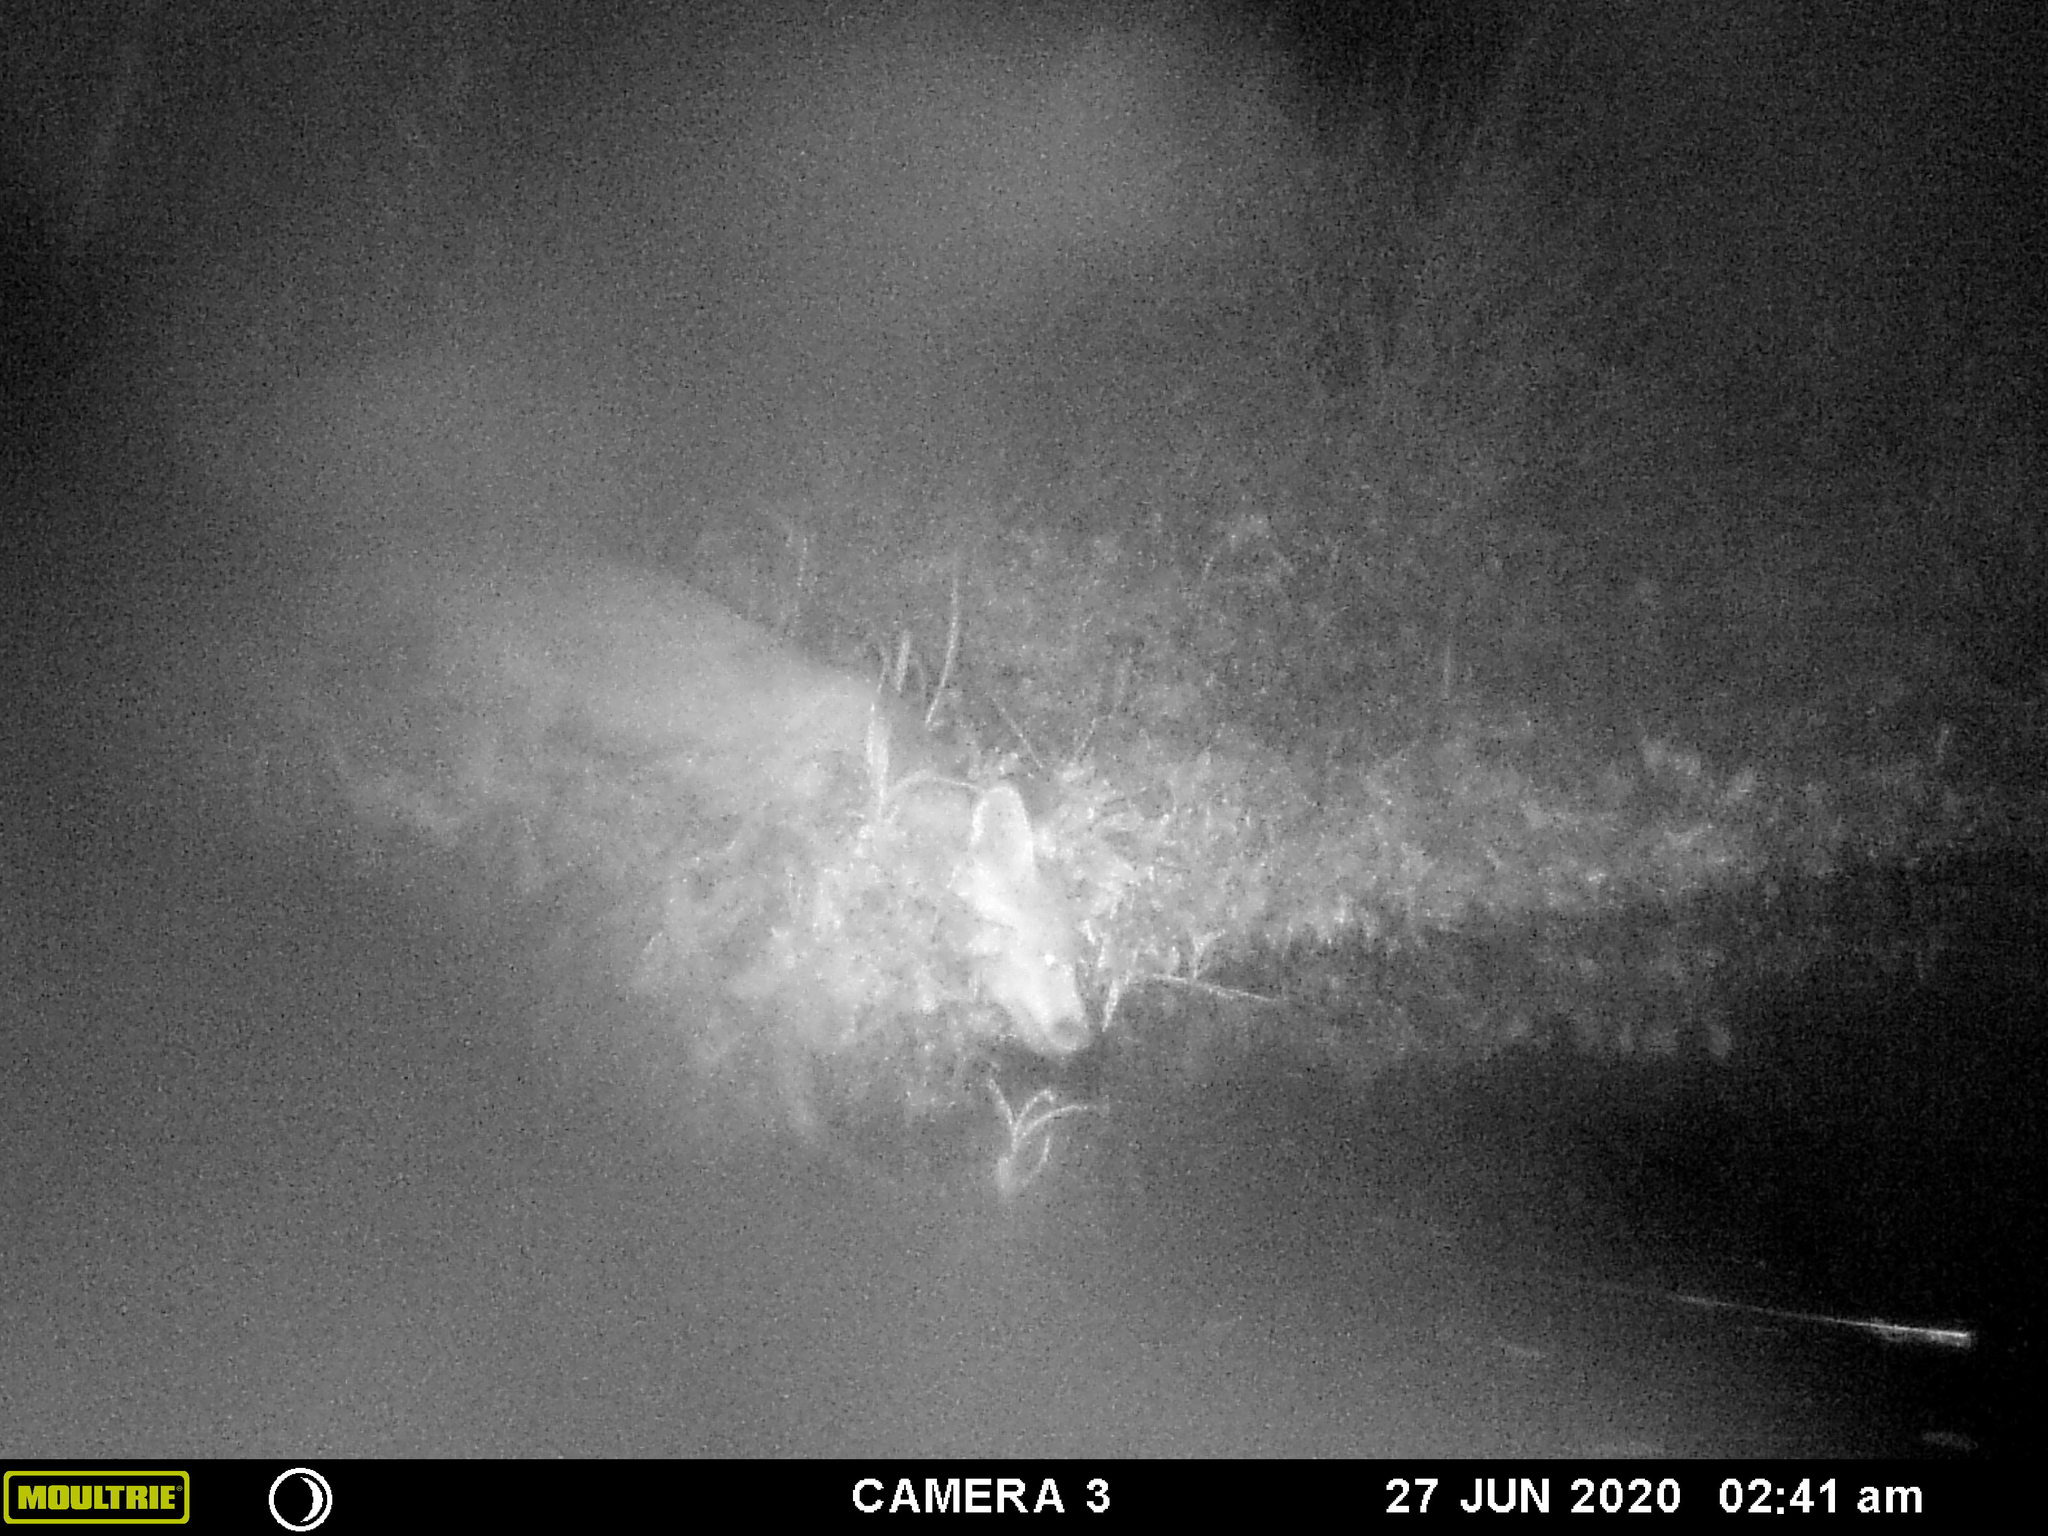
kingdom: Animalia
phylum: Chordata
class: Mammalia
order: Carnivora
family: Canidae
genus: Canis
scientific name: Canis latrans
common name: Coyote
